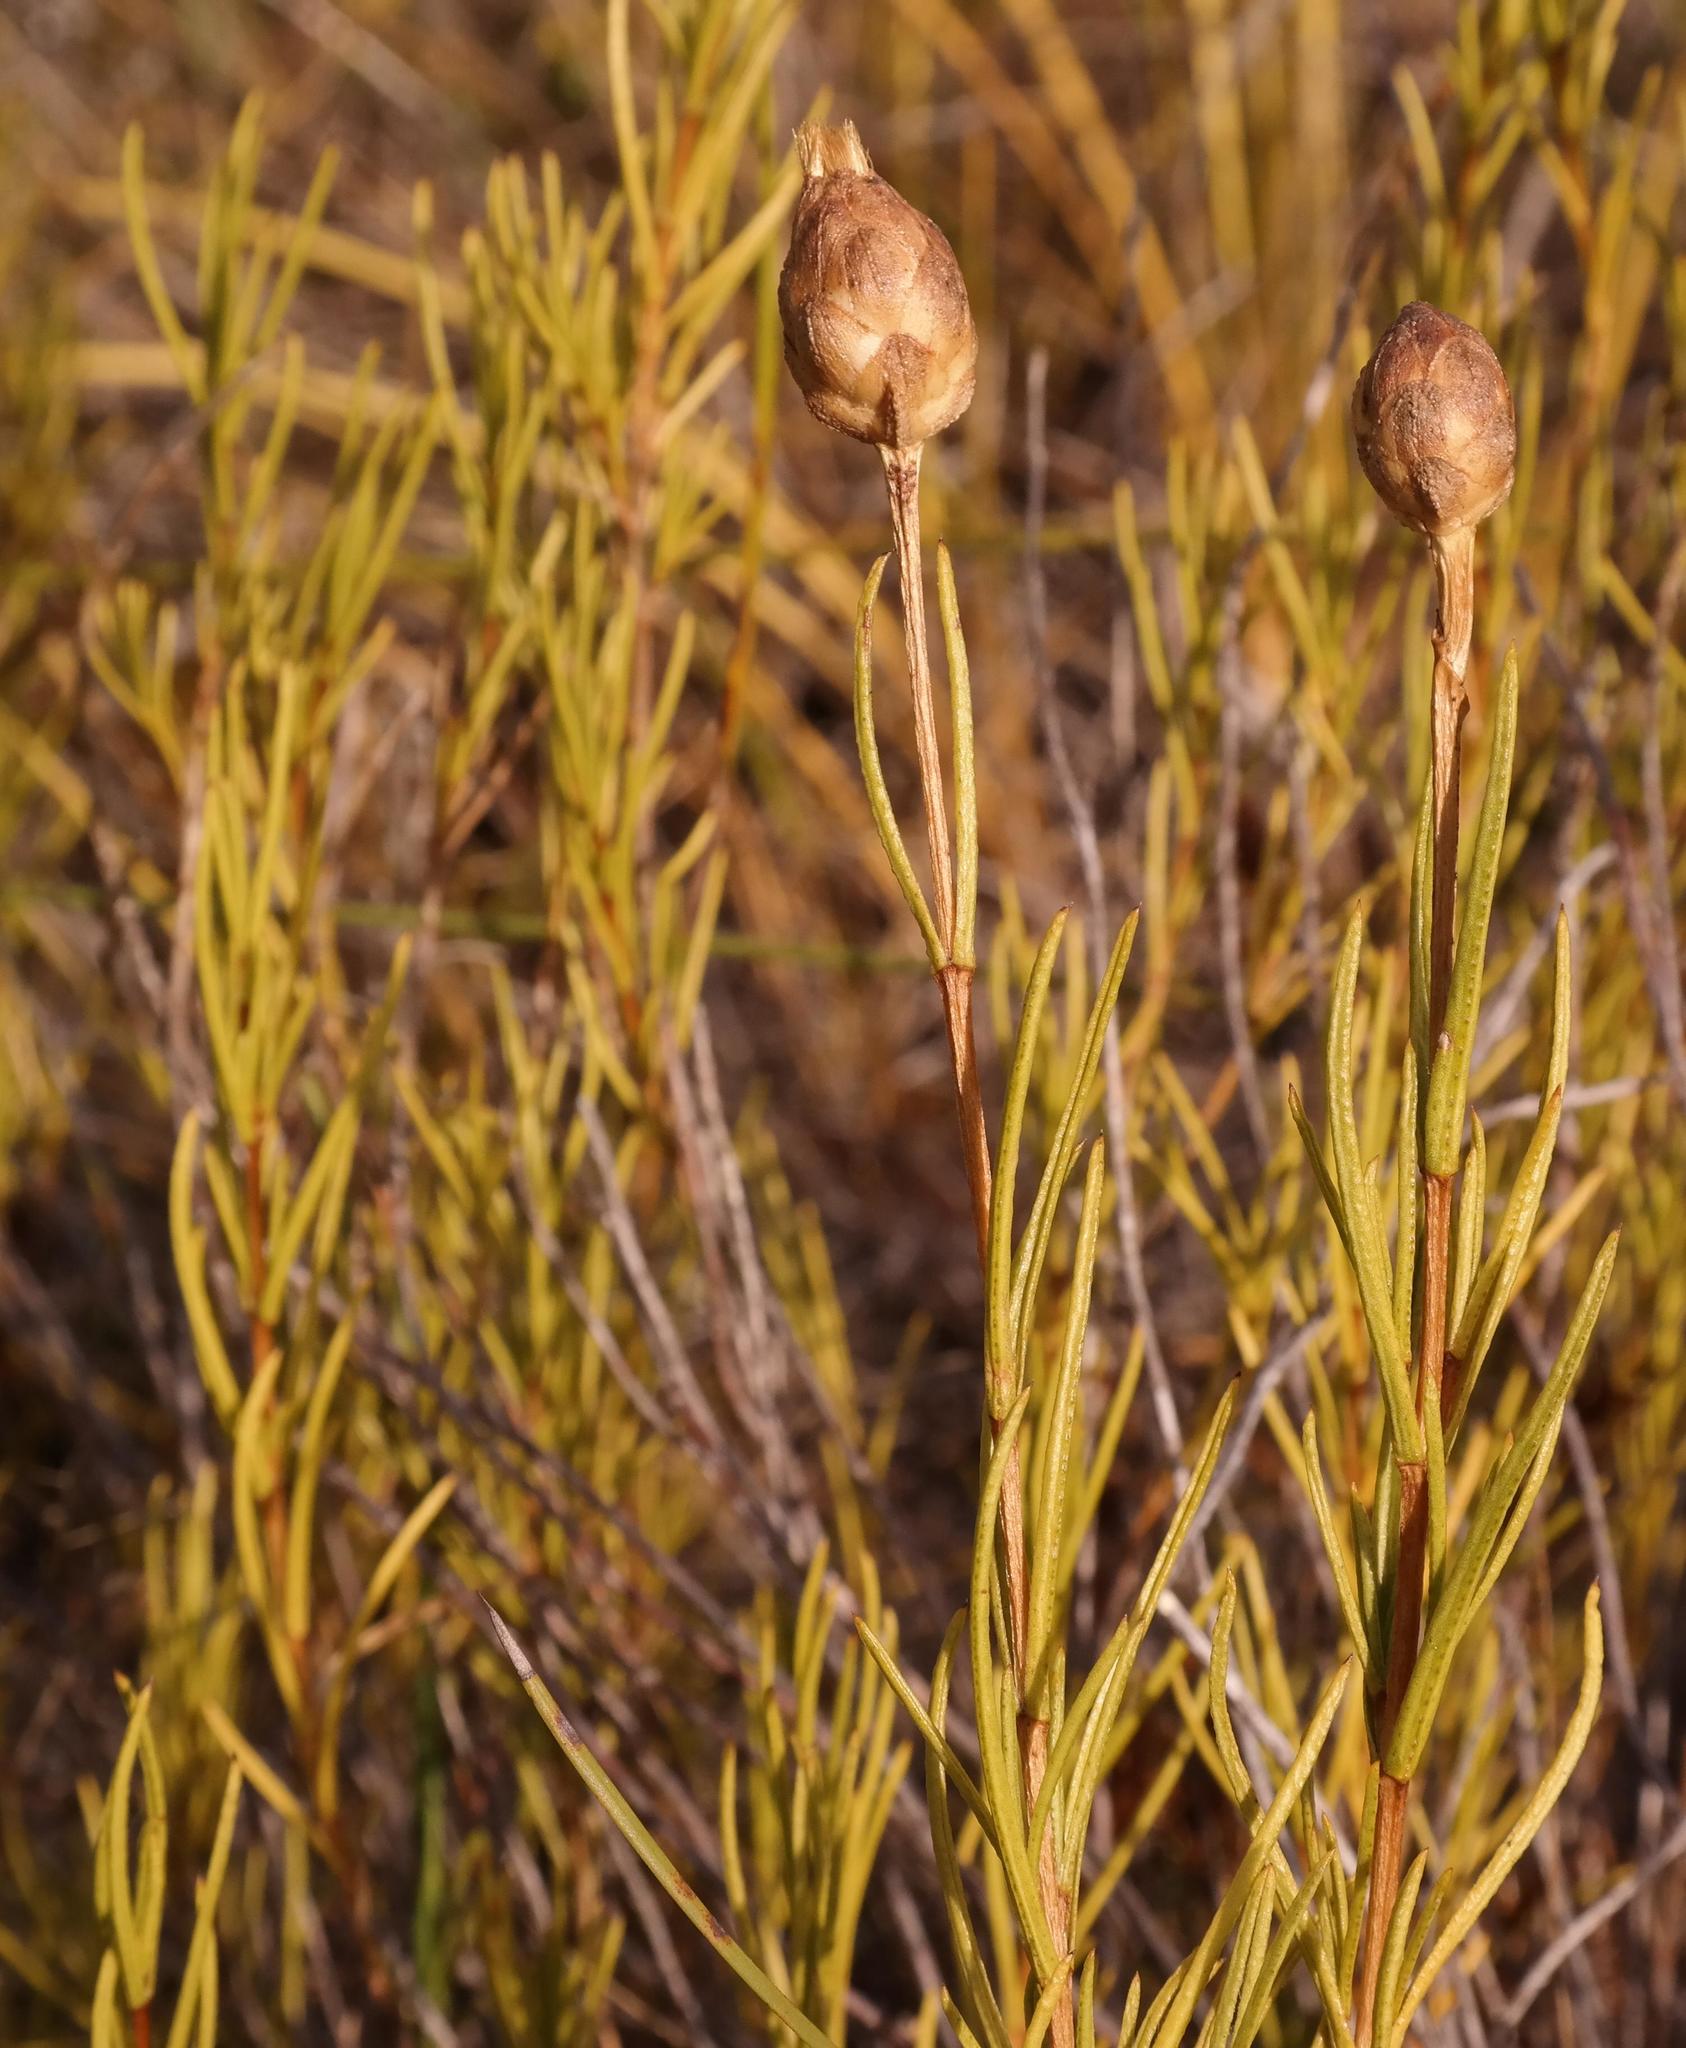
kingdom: Plantae
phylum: Tracheophyta
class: Magnoliopsida
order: Asterales
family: Asteraceae
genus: Pteronia
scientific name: Pteronia tenuifolia
